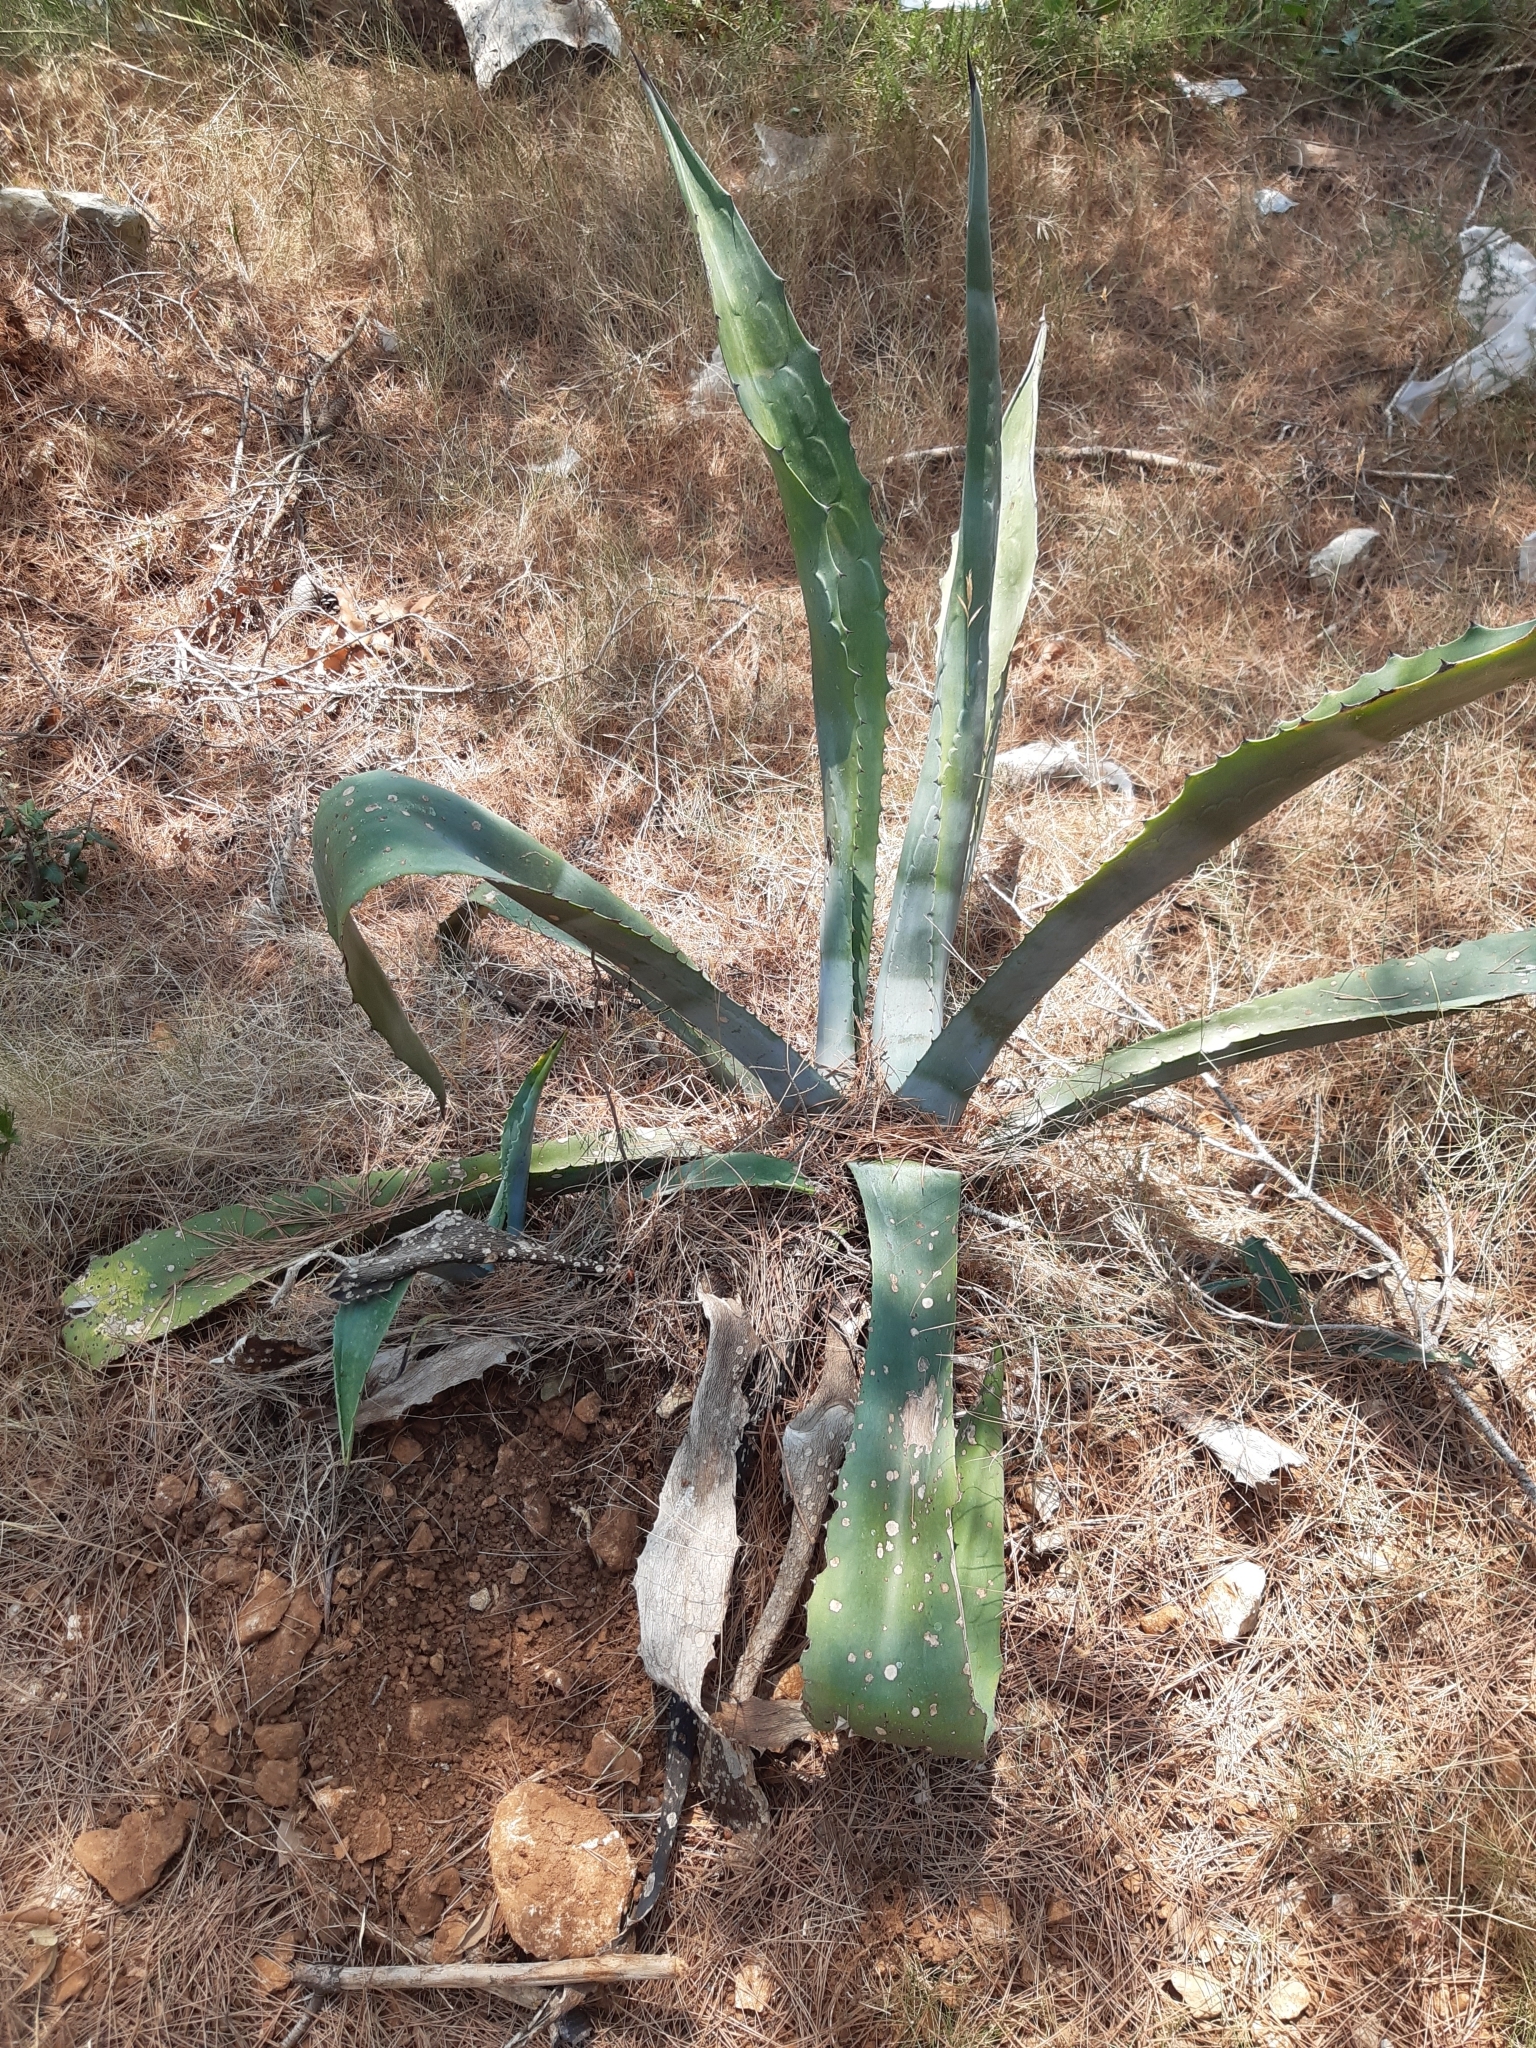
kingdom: Plantae
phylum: Tracheophyta
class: Liliopsida
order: Asparagales
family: Asparagaceae
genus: Agave
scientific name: Agave americana
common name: Centuryplant
